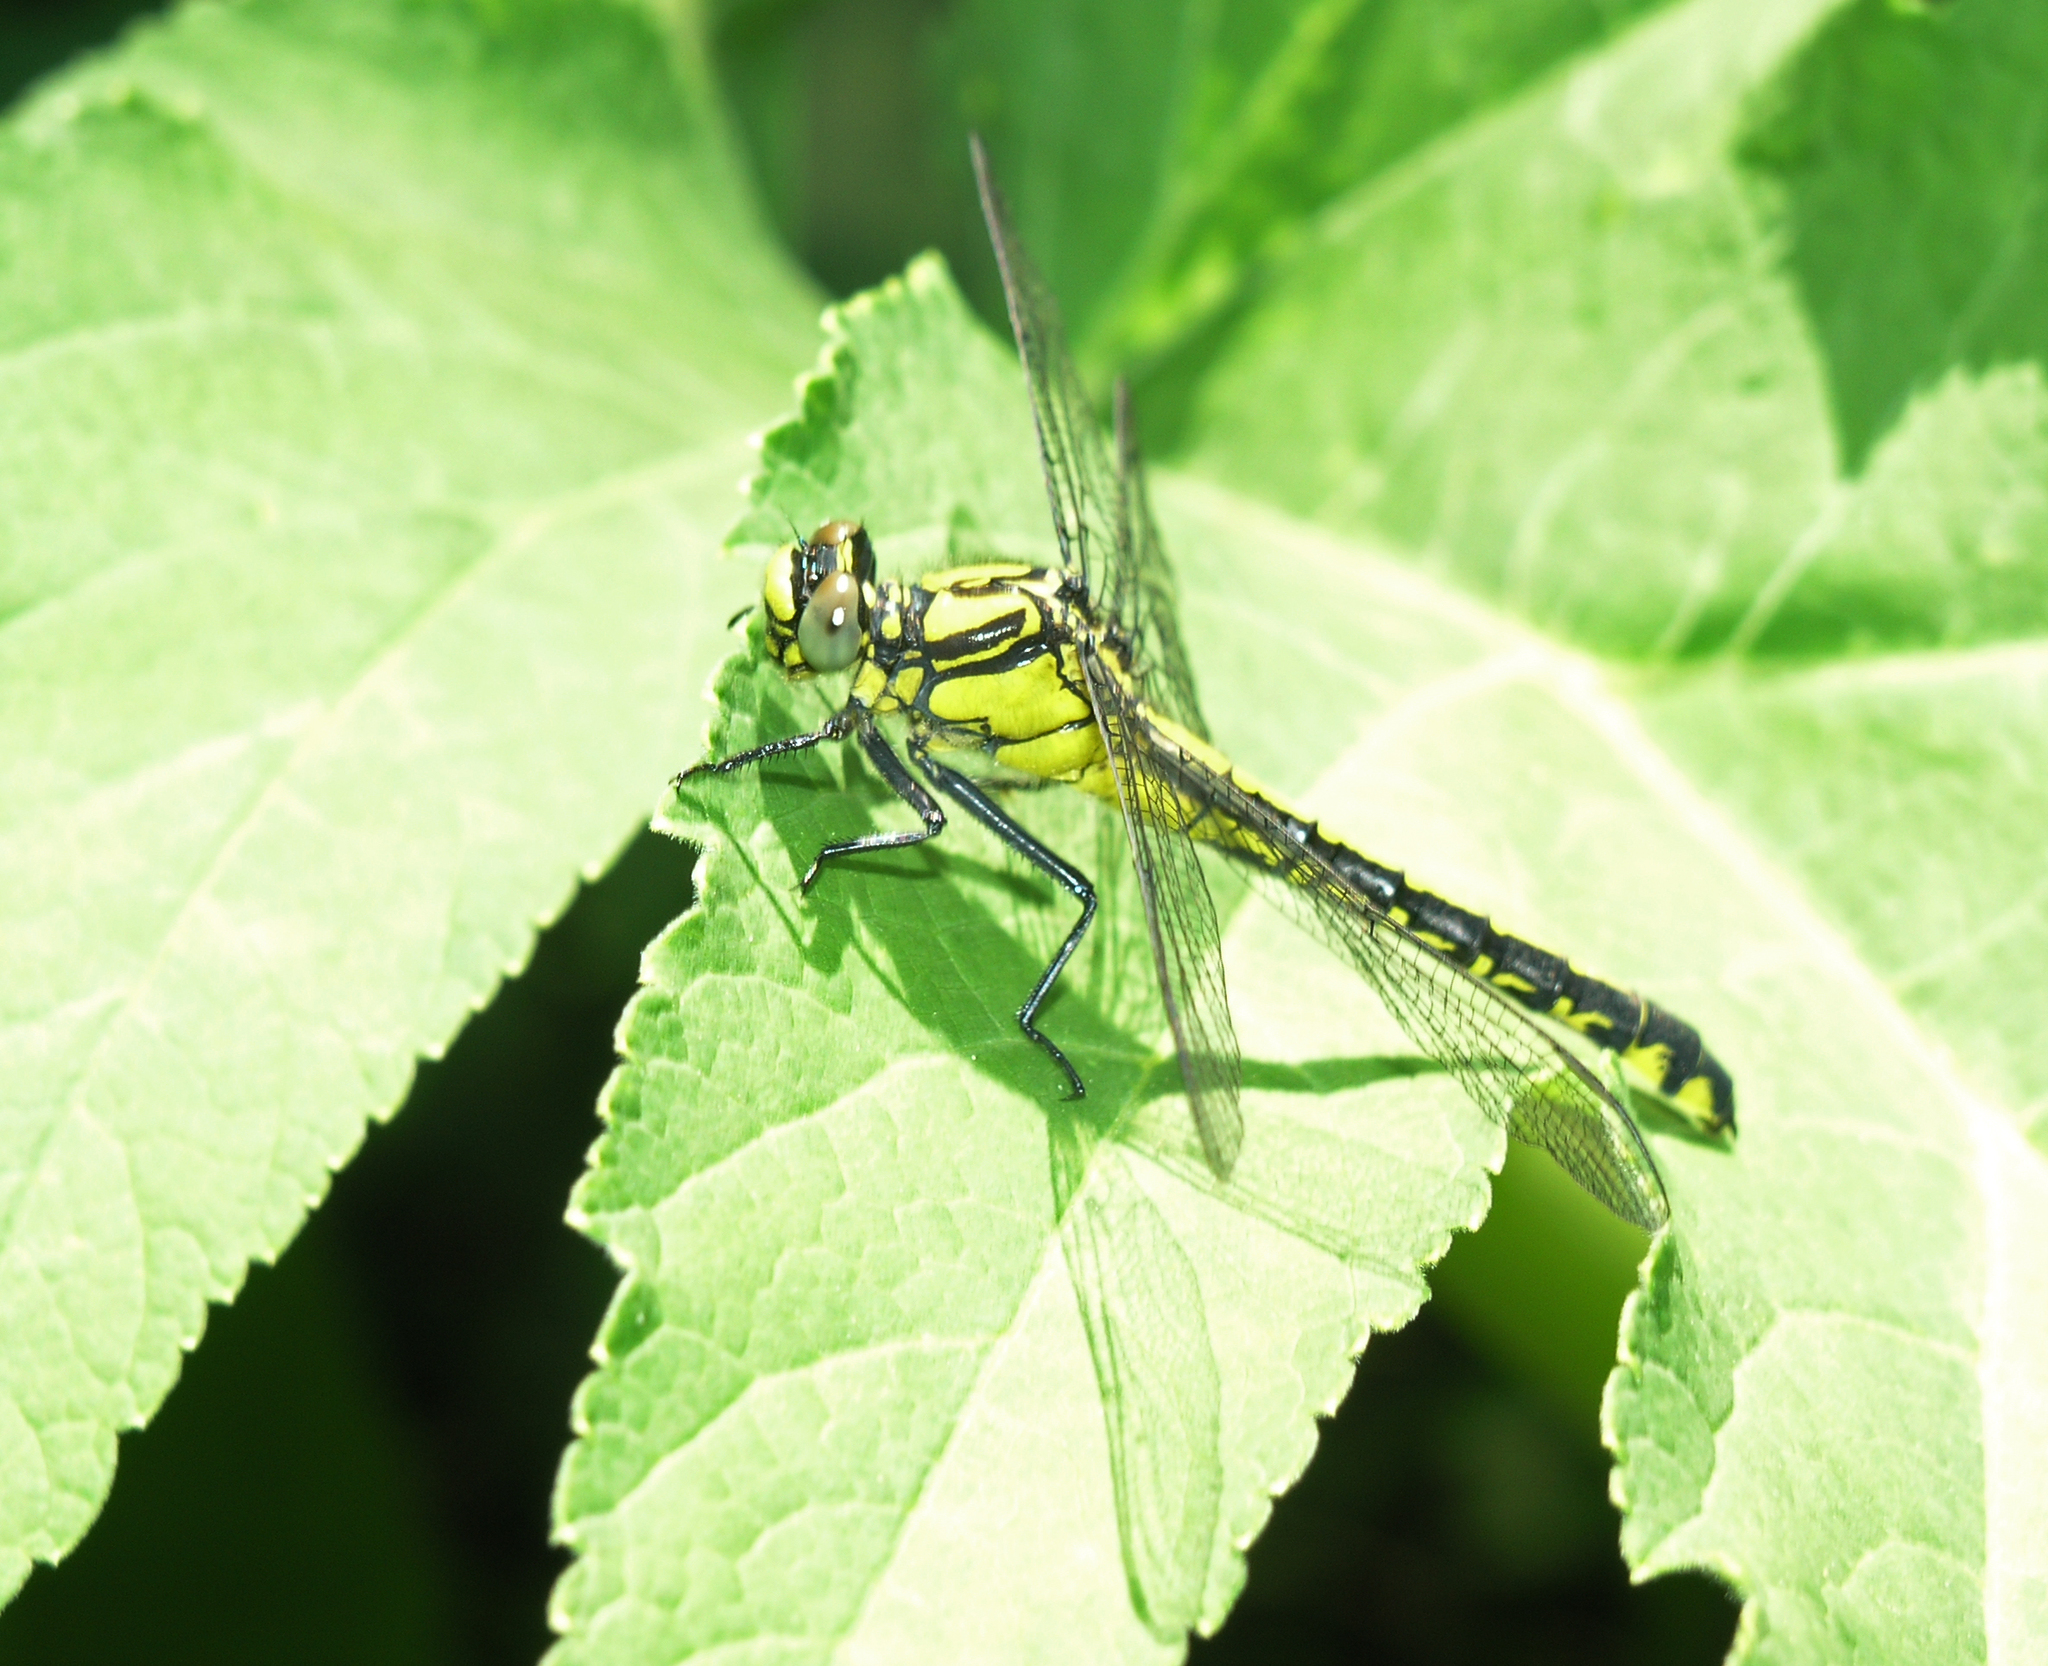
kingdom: Animalia
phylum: Arthropoda
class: Insecta
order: Odonata
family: Gomphidae
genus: Gomphus
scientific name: Gomphus vulgatissimus
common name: Club-tailed dragonfly
